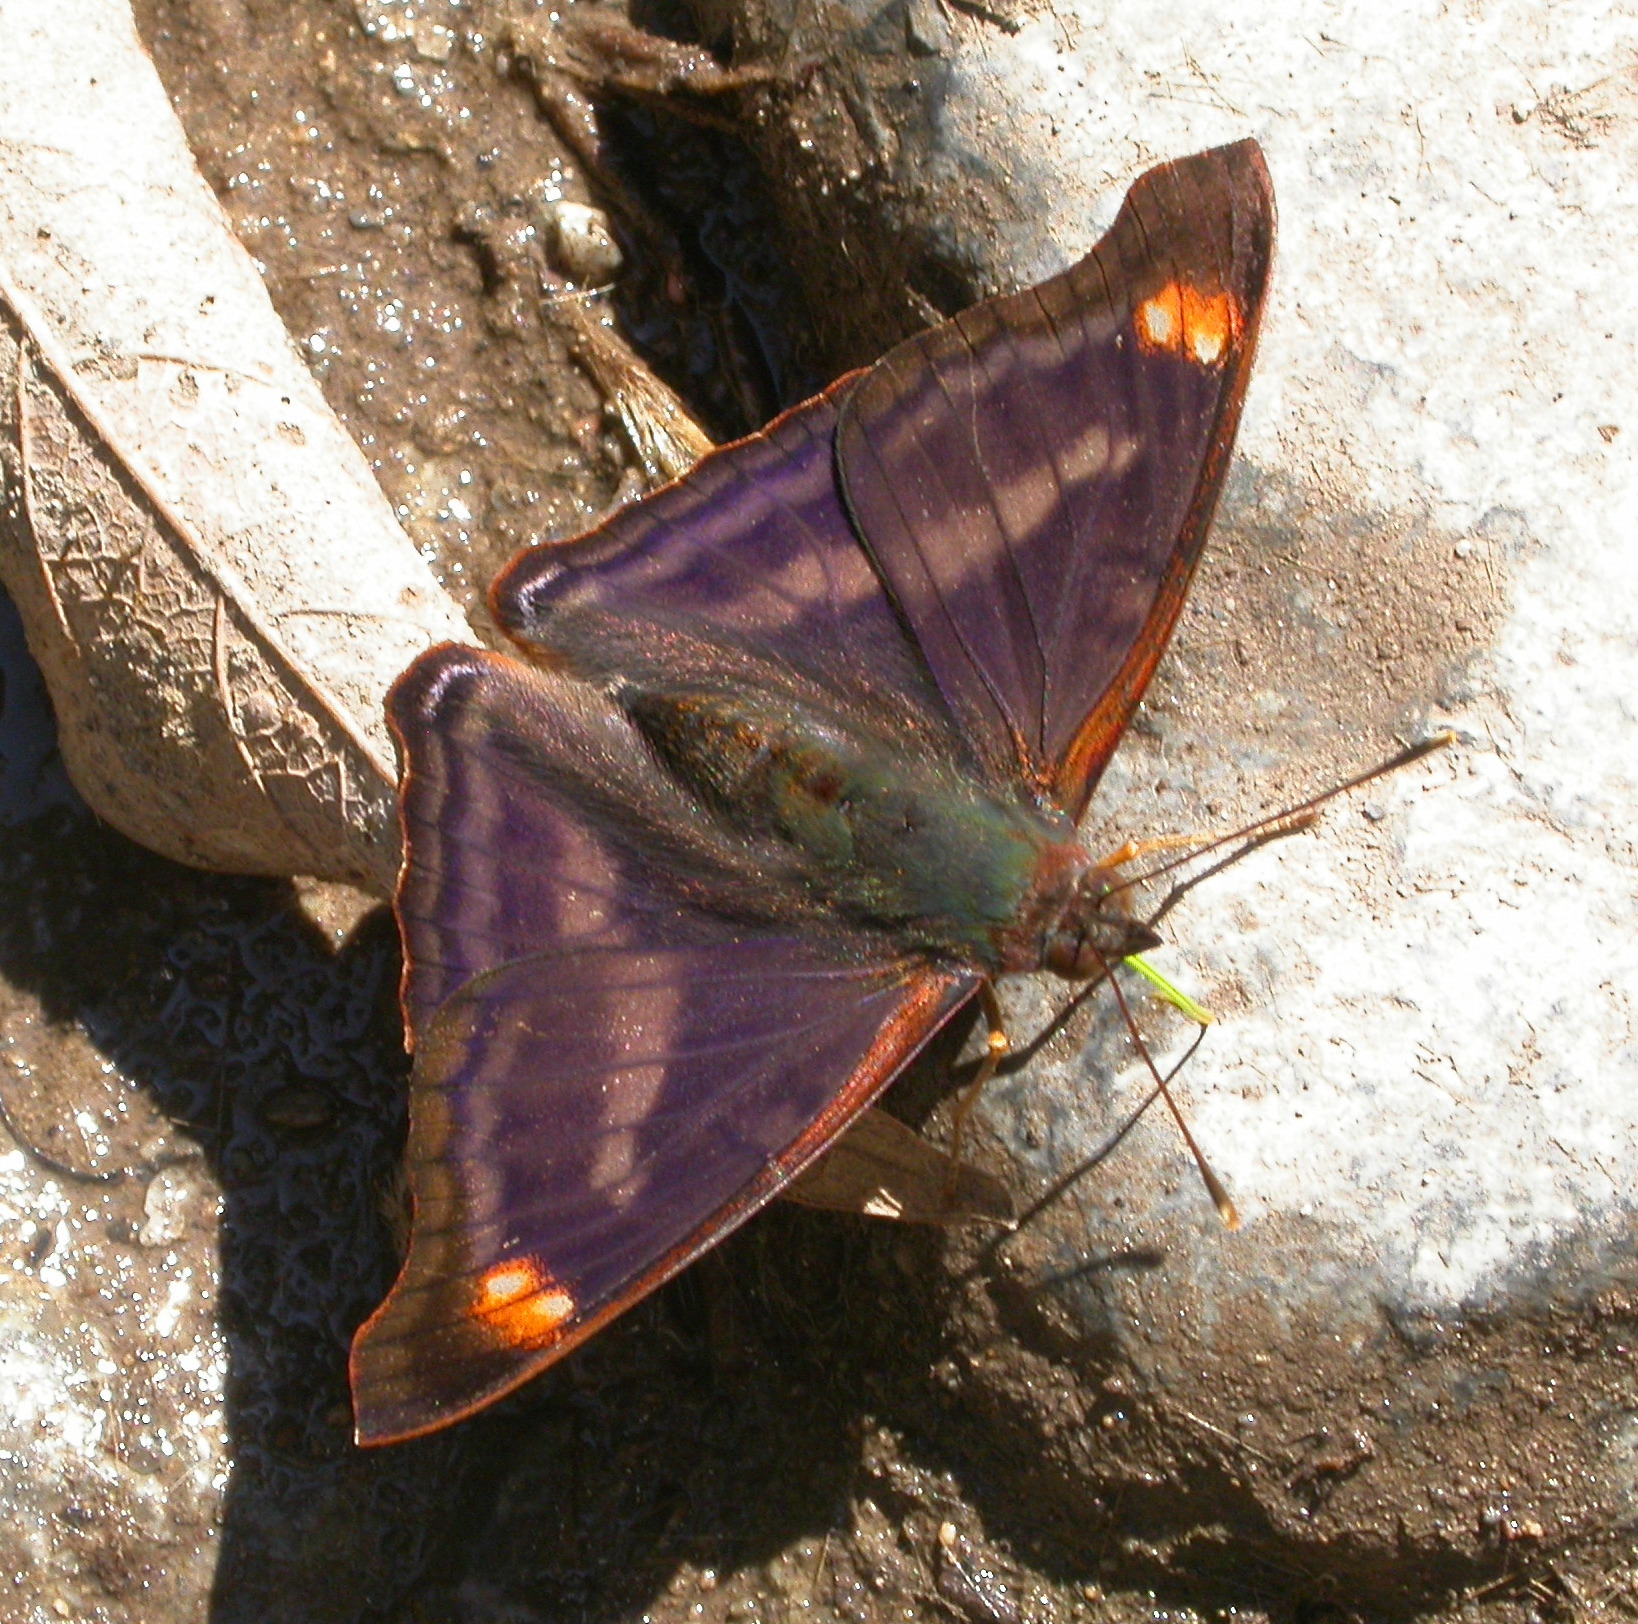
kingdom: Animalia
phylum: Arthropoda
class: Insecta
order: Lepidoptera
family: Nymphalidae
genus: Doxocopa
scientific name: Doxocopa pavon
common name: Pavon emperor
